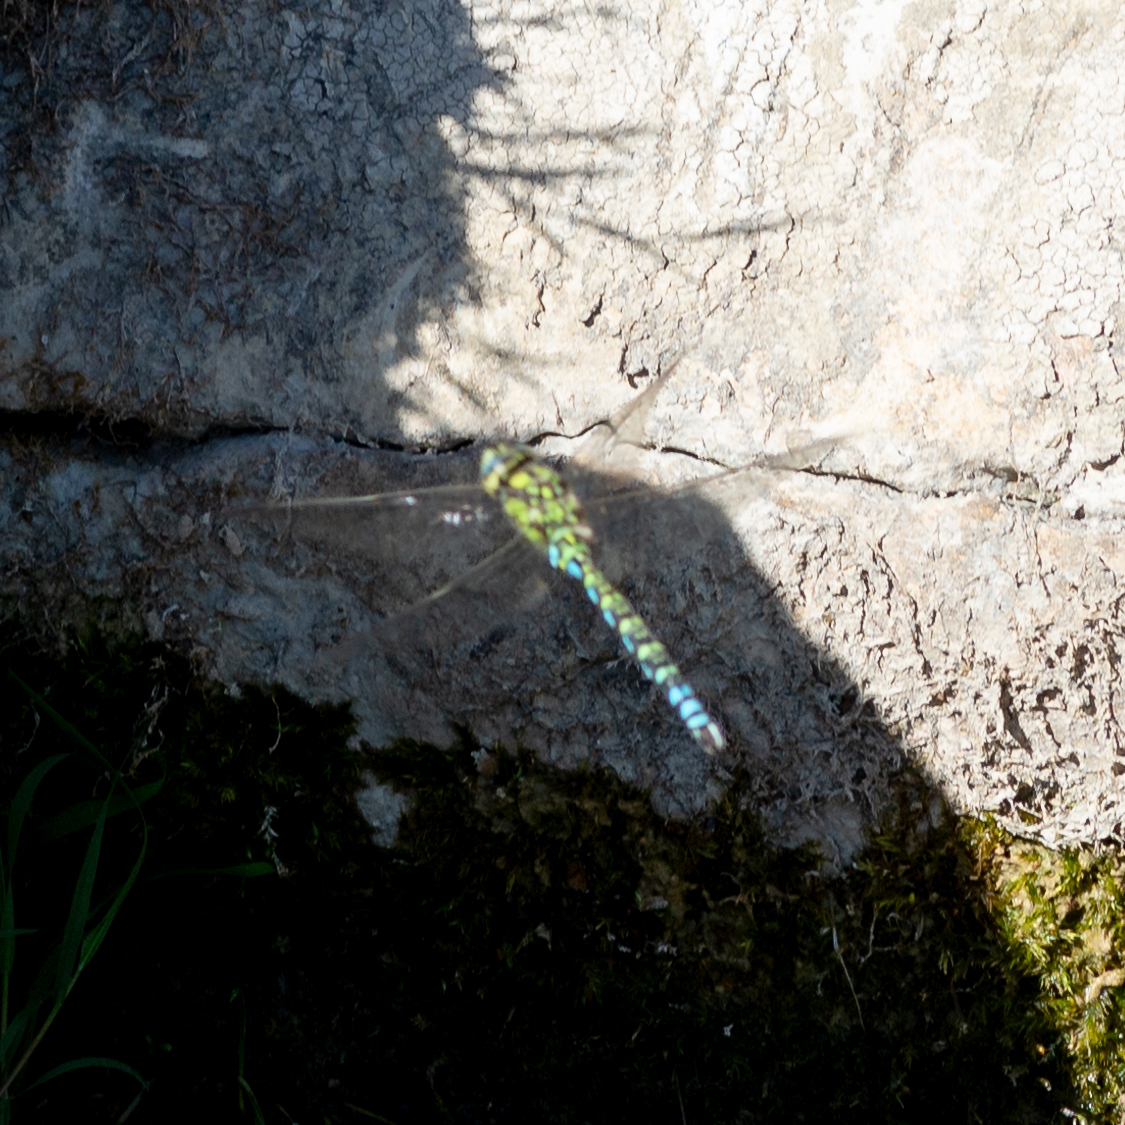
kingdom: Animalia
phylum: Arthropoda
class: Insecta
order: Odonata
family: Aeshnidae
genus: Aeshna
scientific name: Aeshna cyanea
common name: Southern hawker
